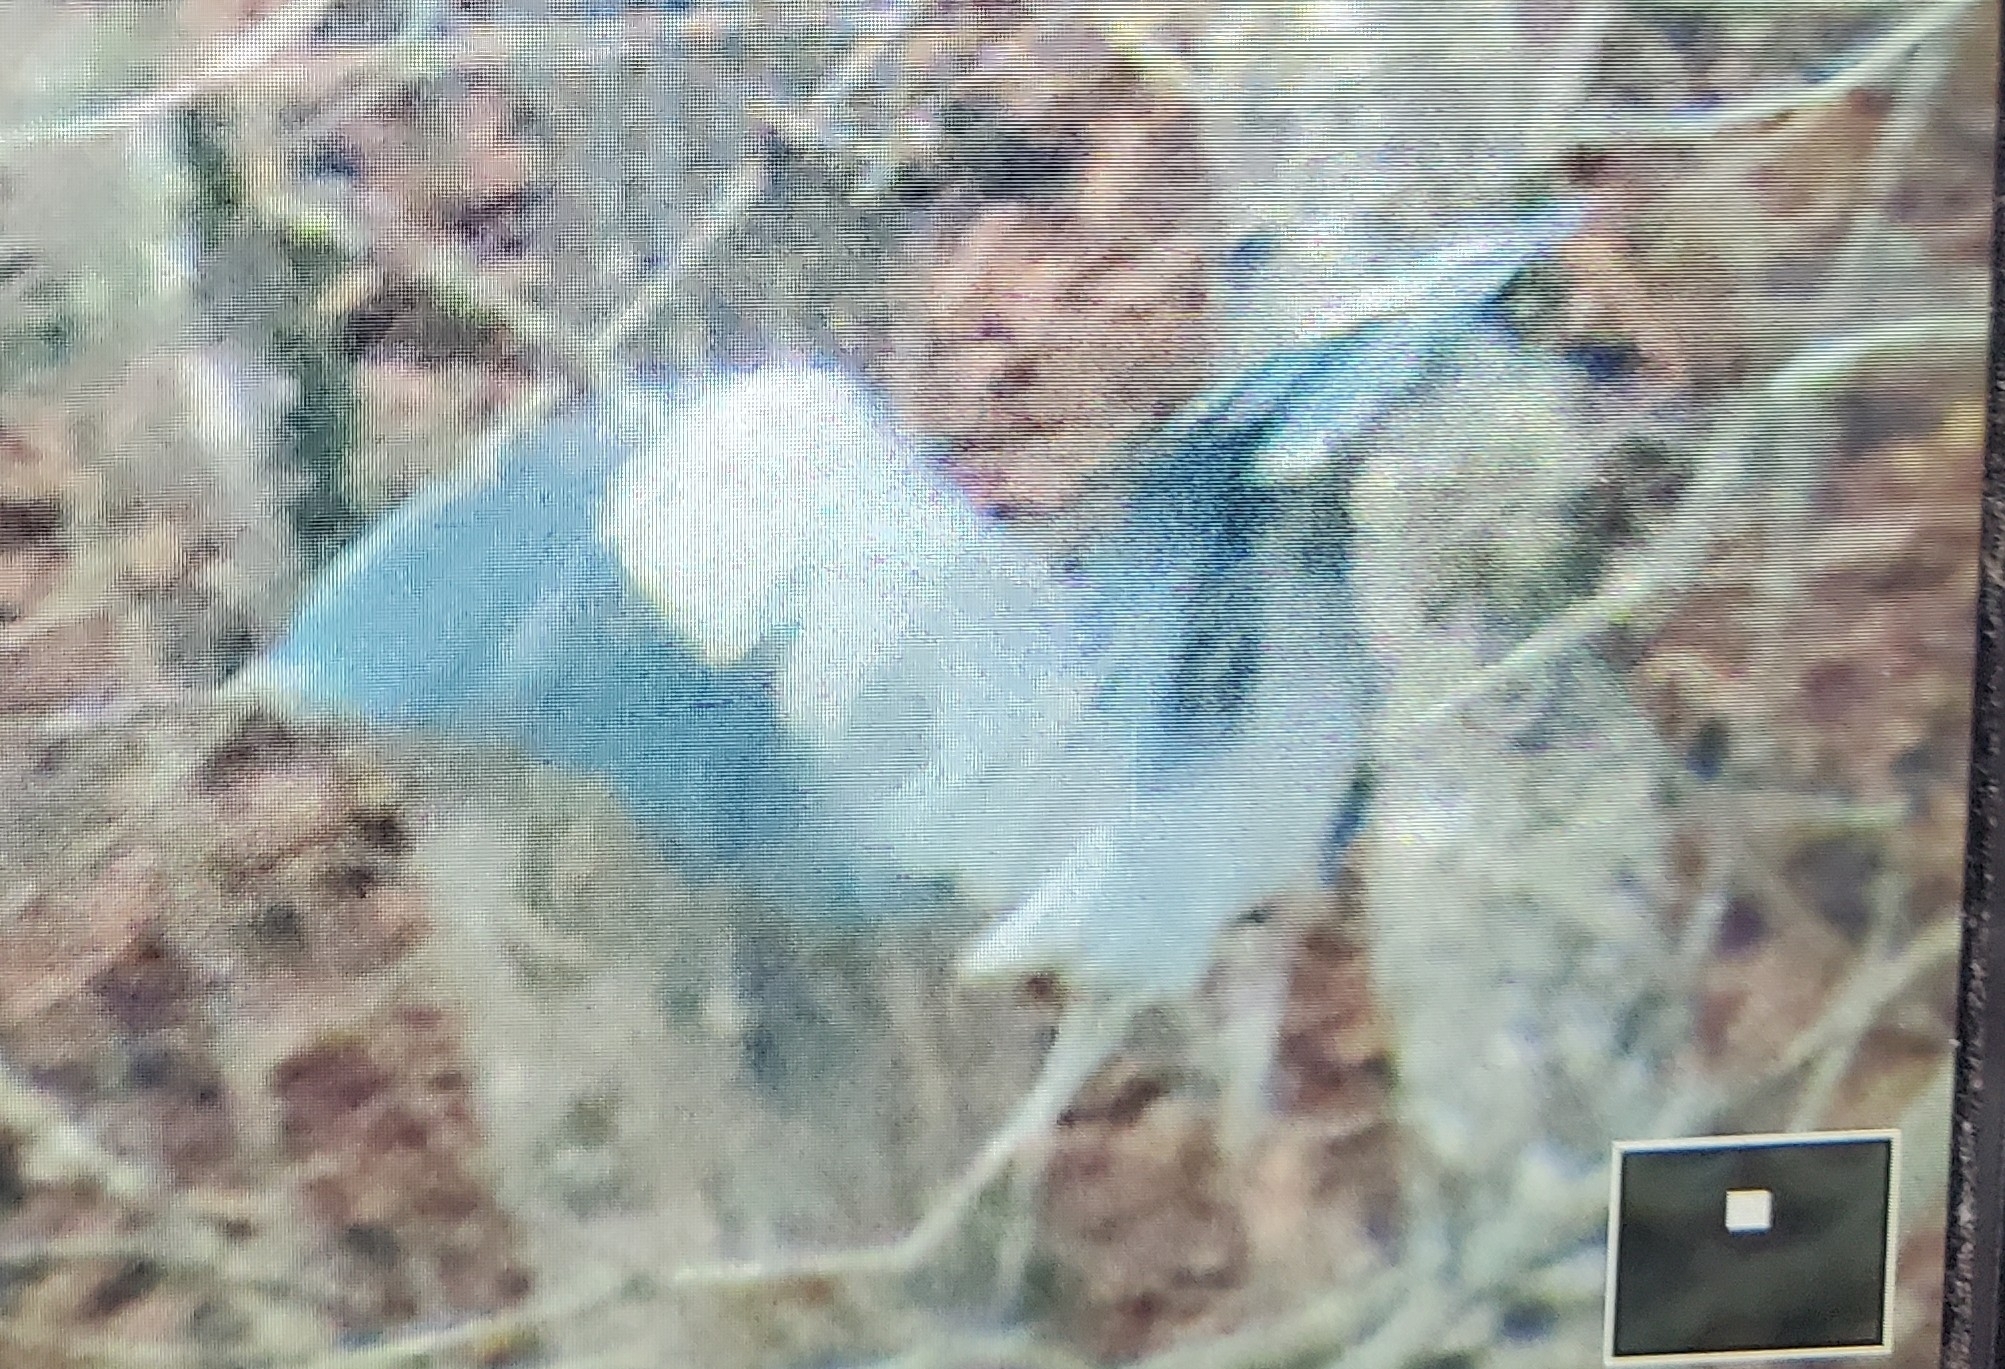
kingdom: Animalia
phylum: Chordata
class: Aves
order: Pelecaniformes
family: Ardeidae
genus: Ardea
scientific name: Ardea herodias
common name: Great blue heron
